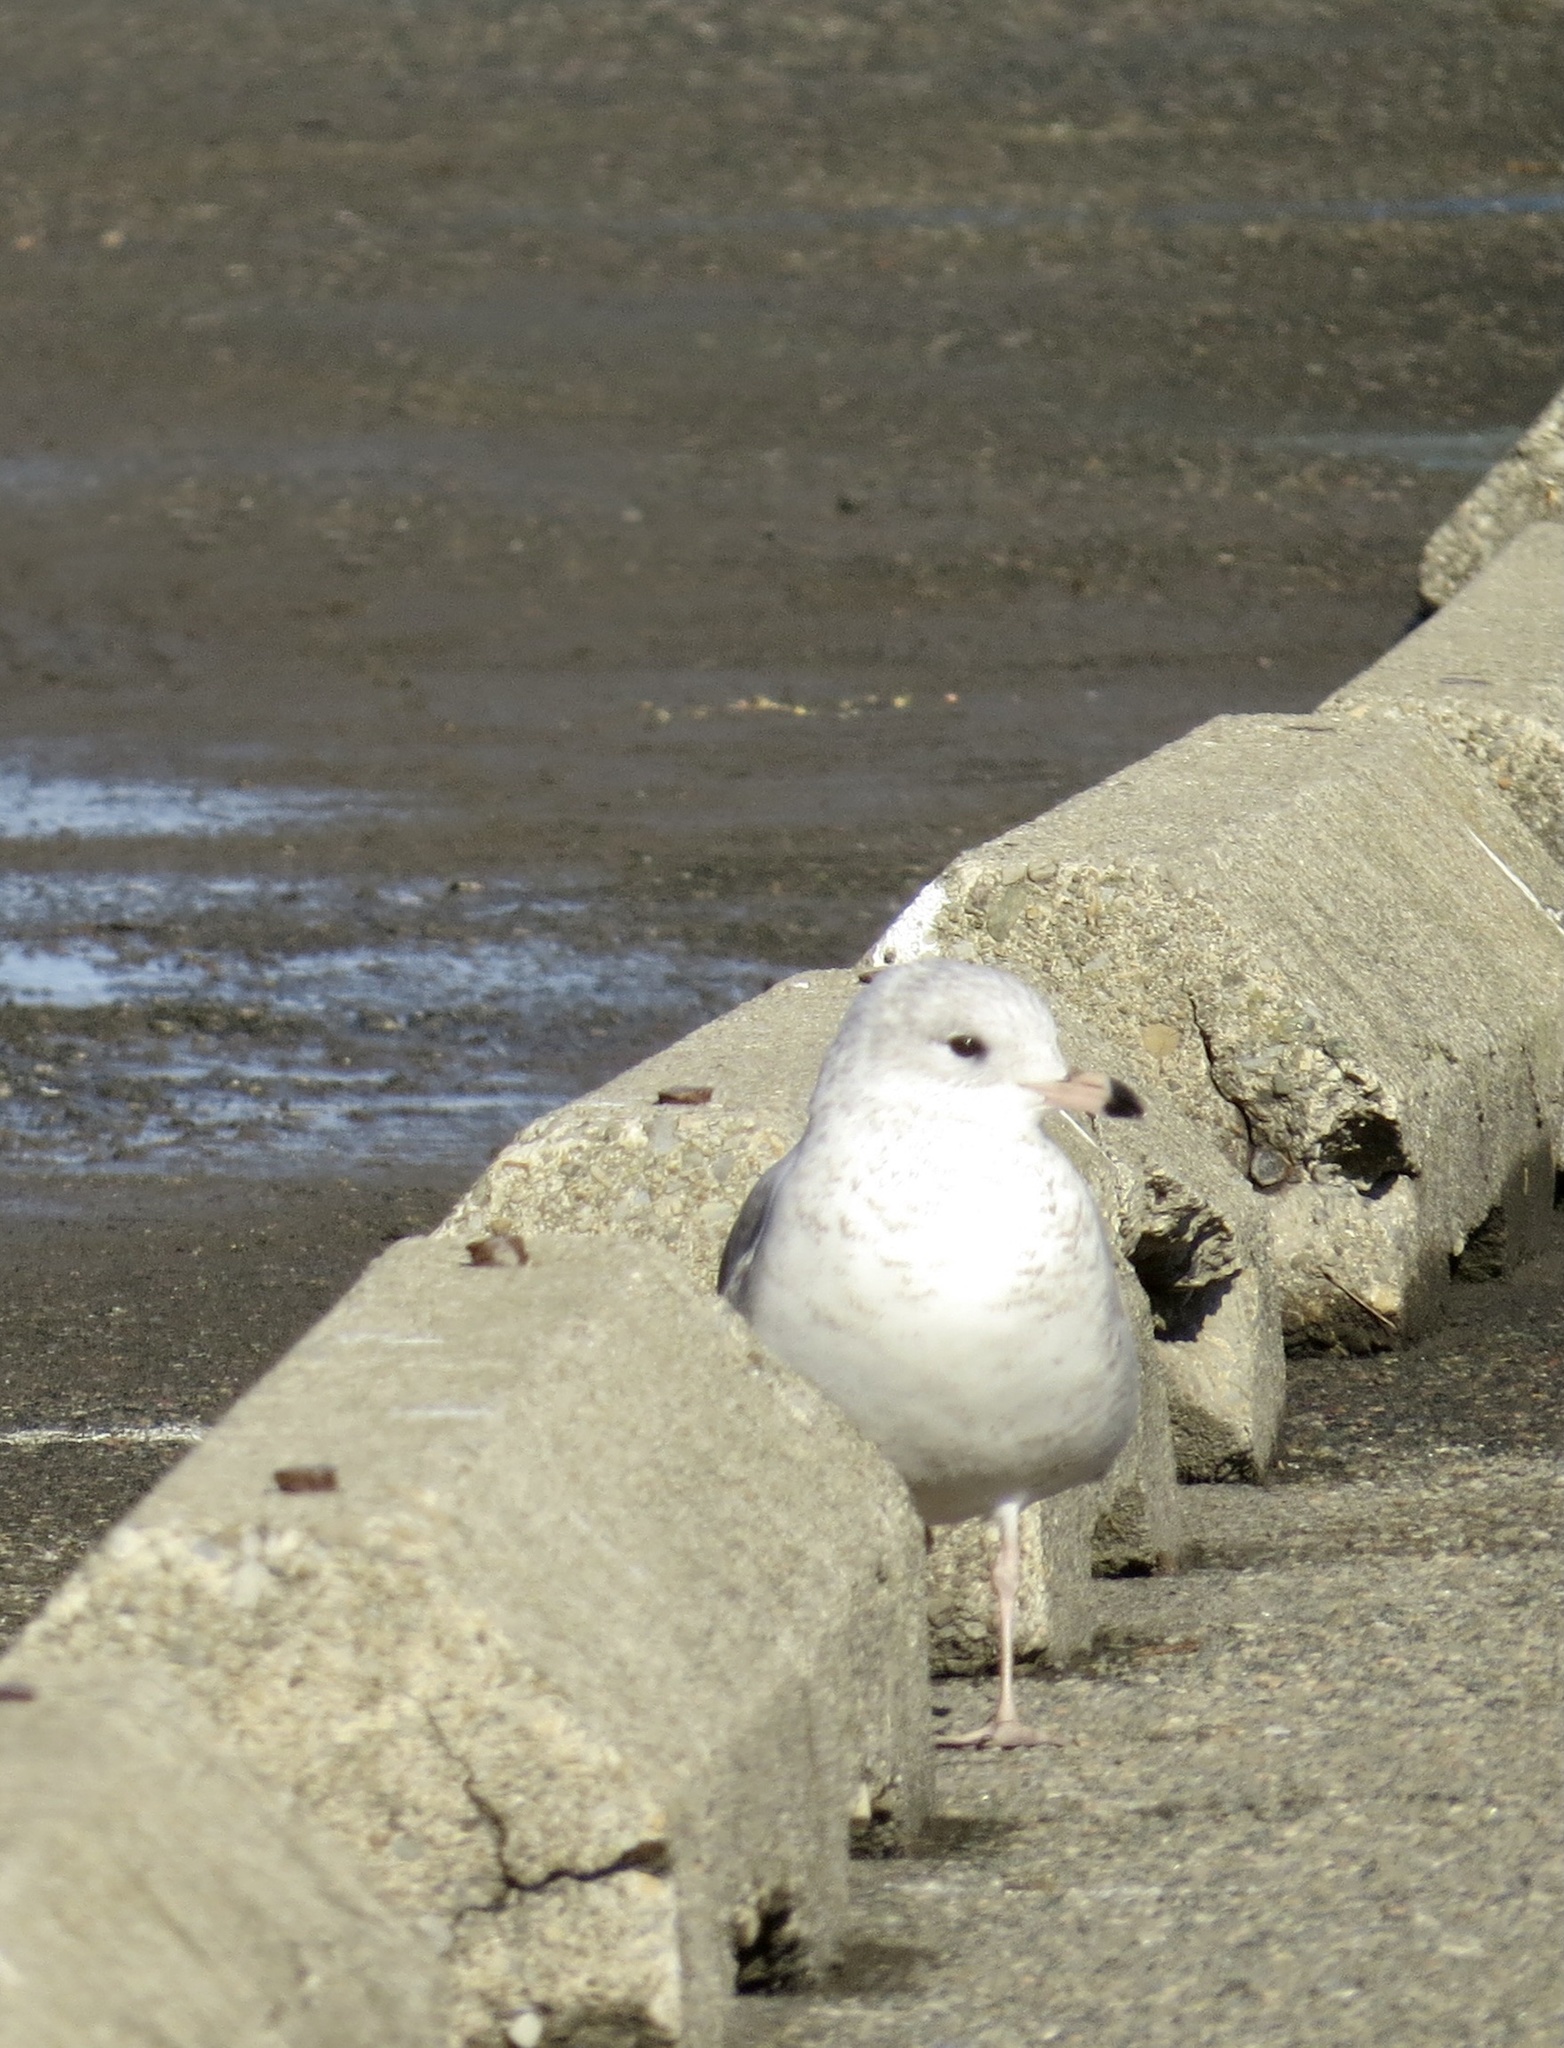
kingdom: Animalia
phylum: Chordata
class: Aves
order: Charadriiformes
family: Laridae
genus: Larus
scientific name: Larus delawarensis
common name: Ring-billed gull
